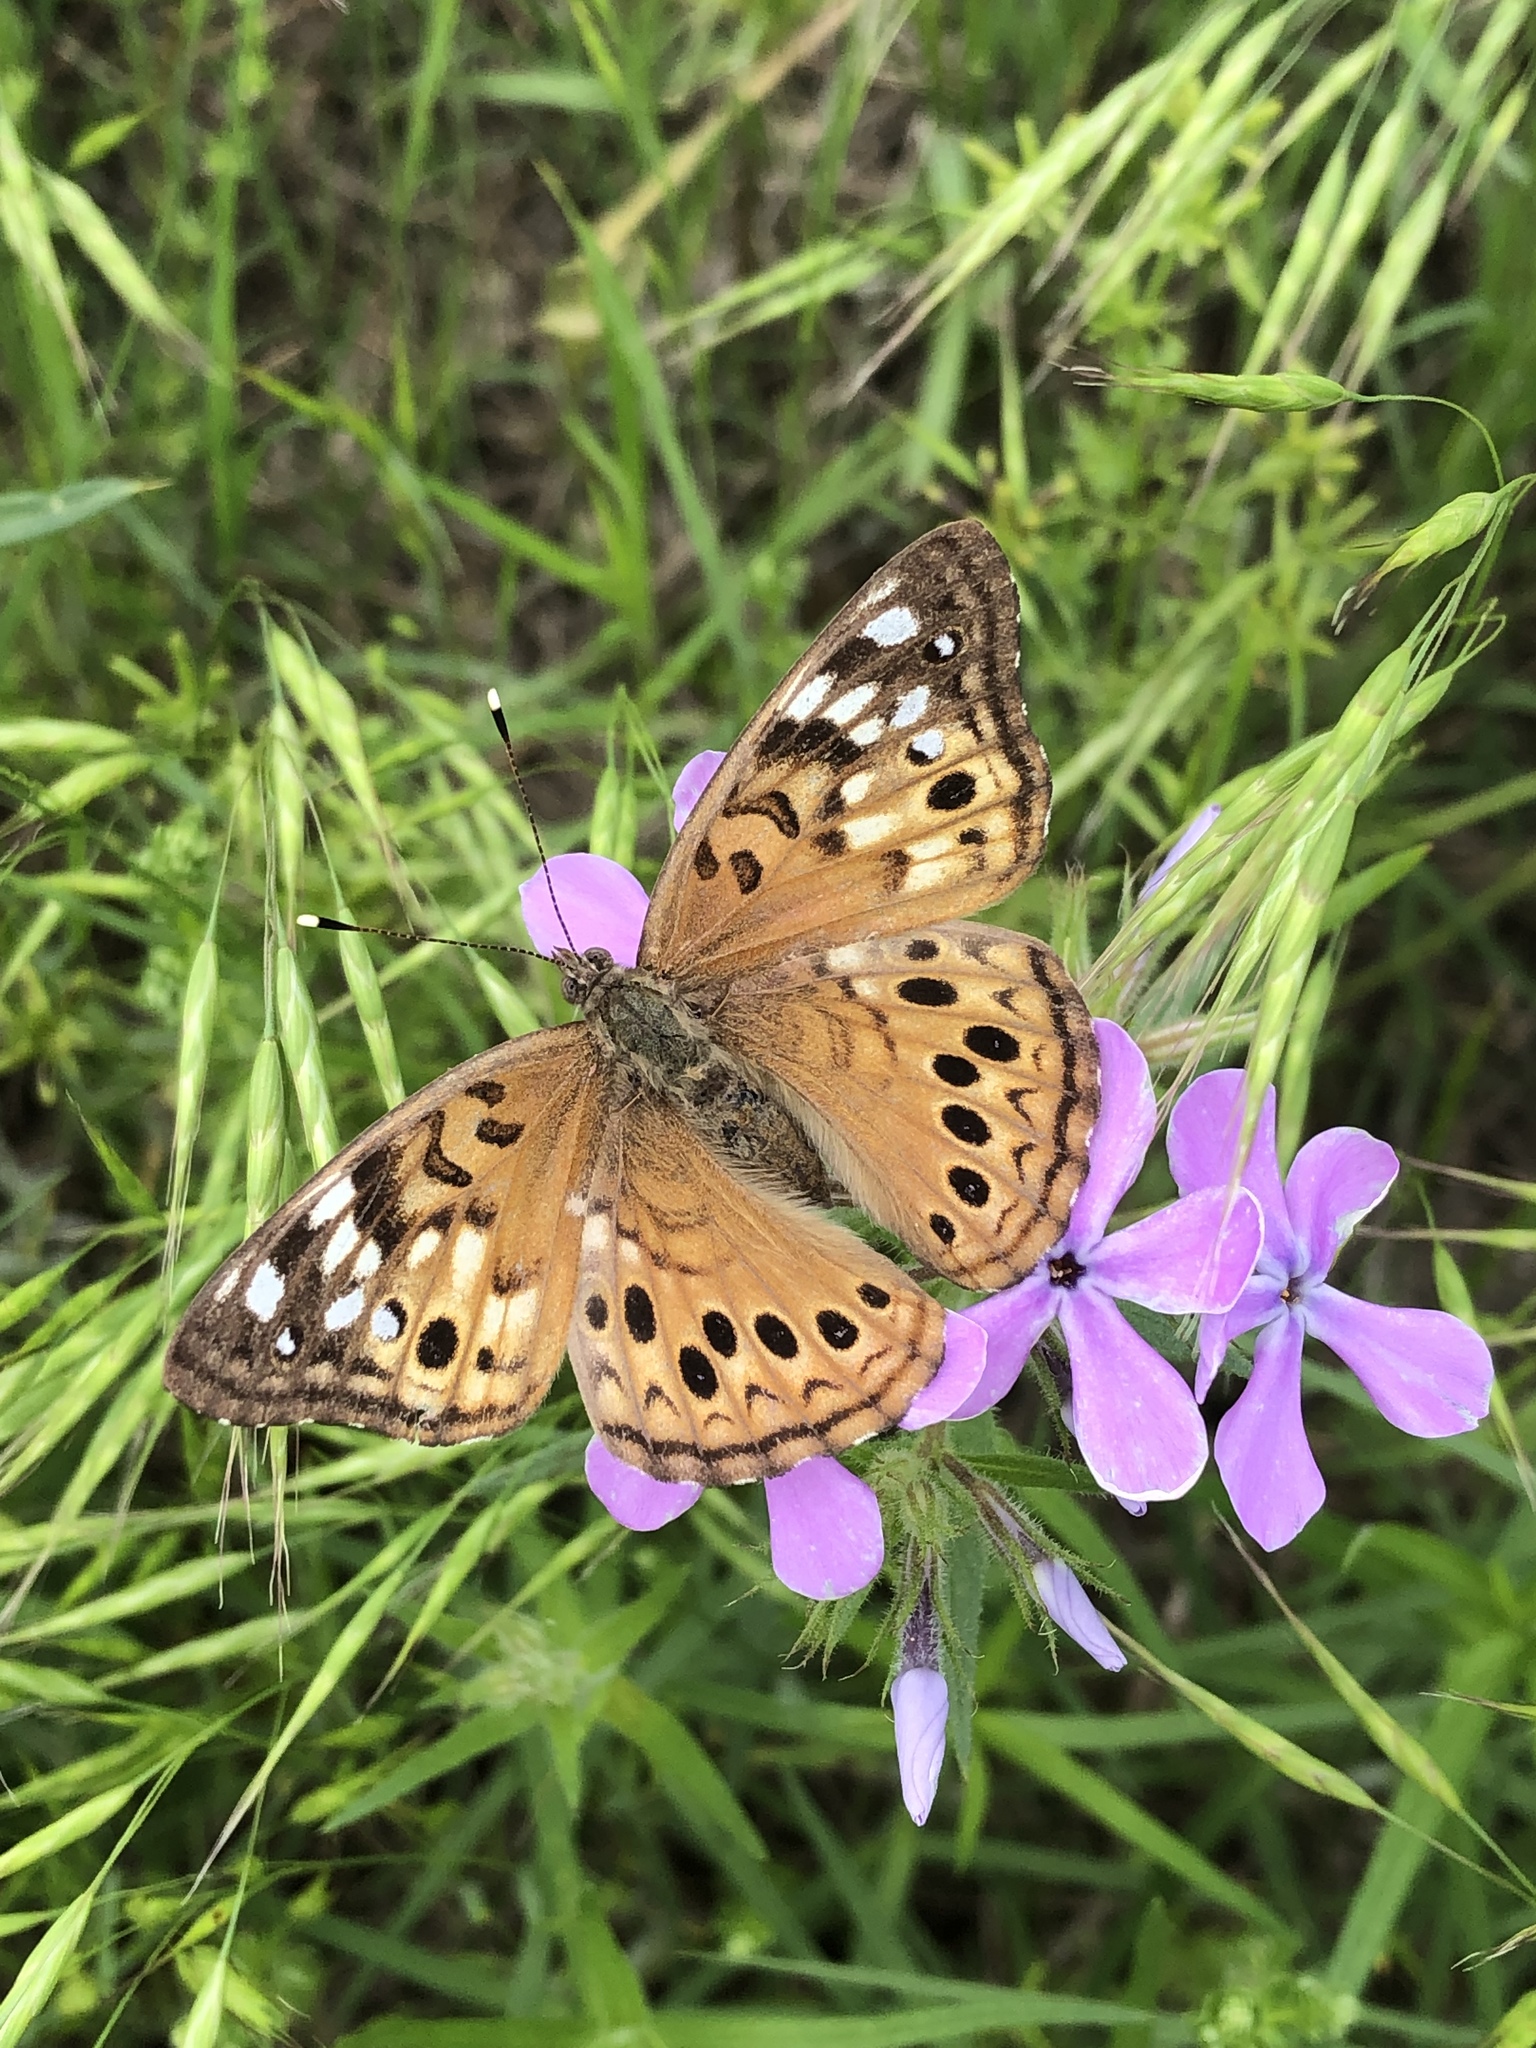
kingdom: Animalia
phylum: Arthropoda
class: Insecta
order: Lepidoptera
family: Nymphalidae
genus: Asterocampa
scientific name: Asterocampa celtis
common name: Hackberry emperor
